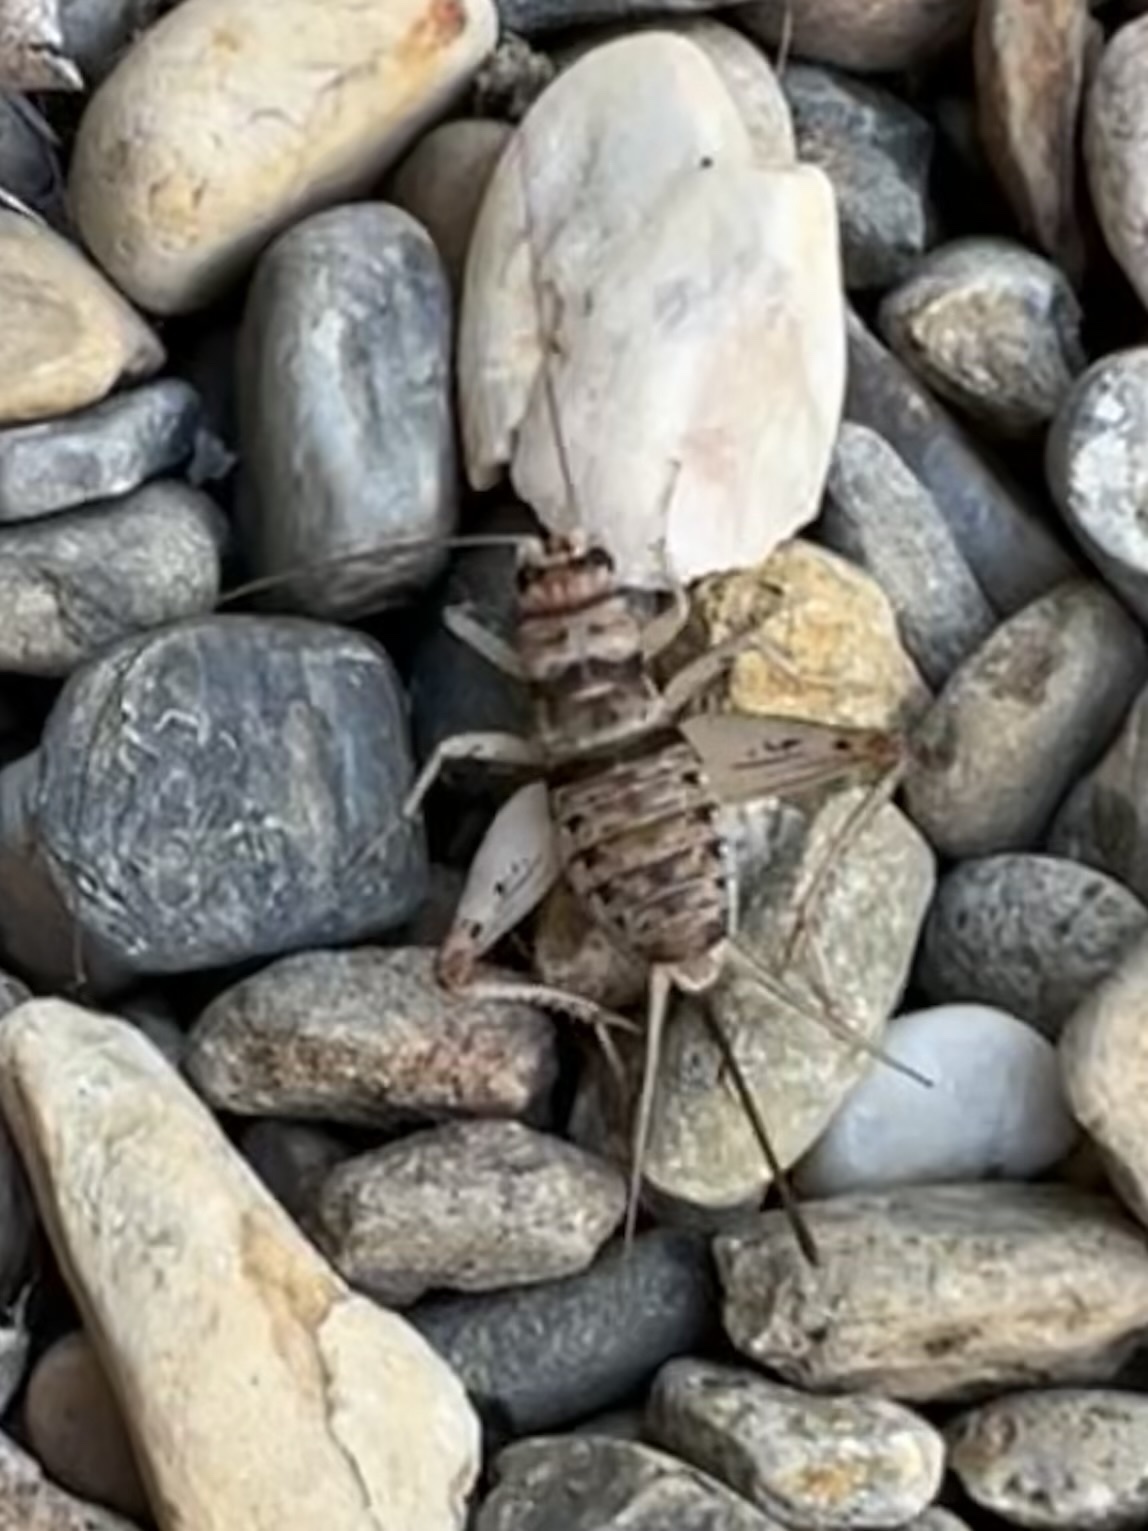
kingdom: Animalia
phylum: Arthropoda
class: Insecta
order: Orthoptera
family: Gryllidae
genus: Gryllodes
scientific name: Gryllodes sigillatus
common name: Tropical house cricket
